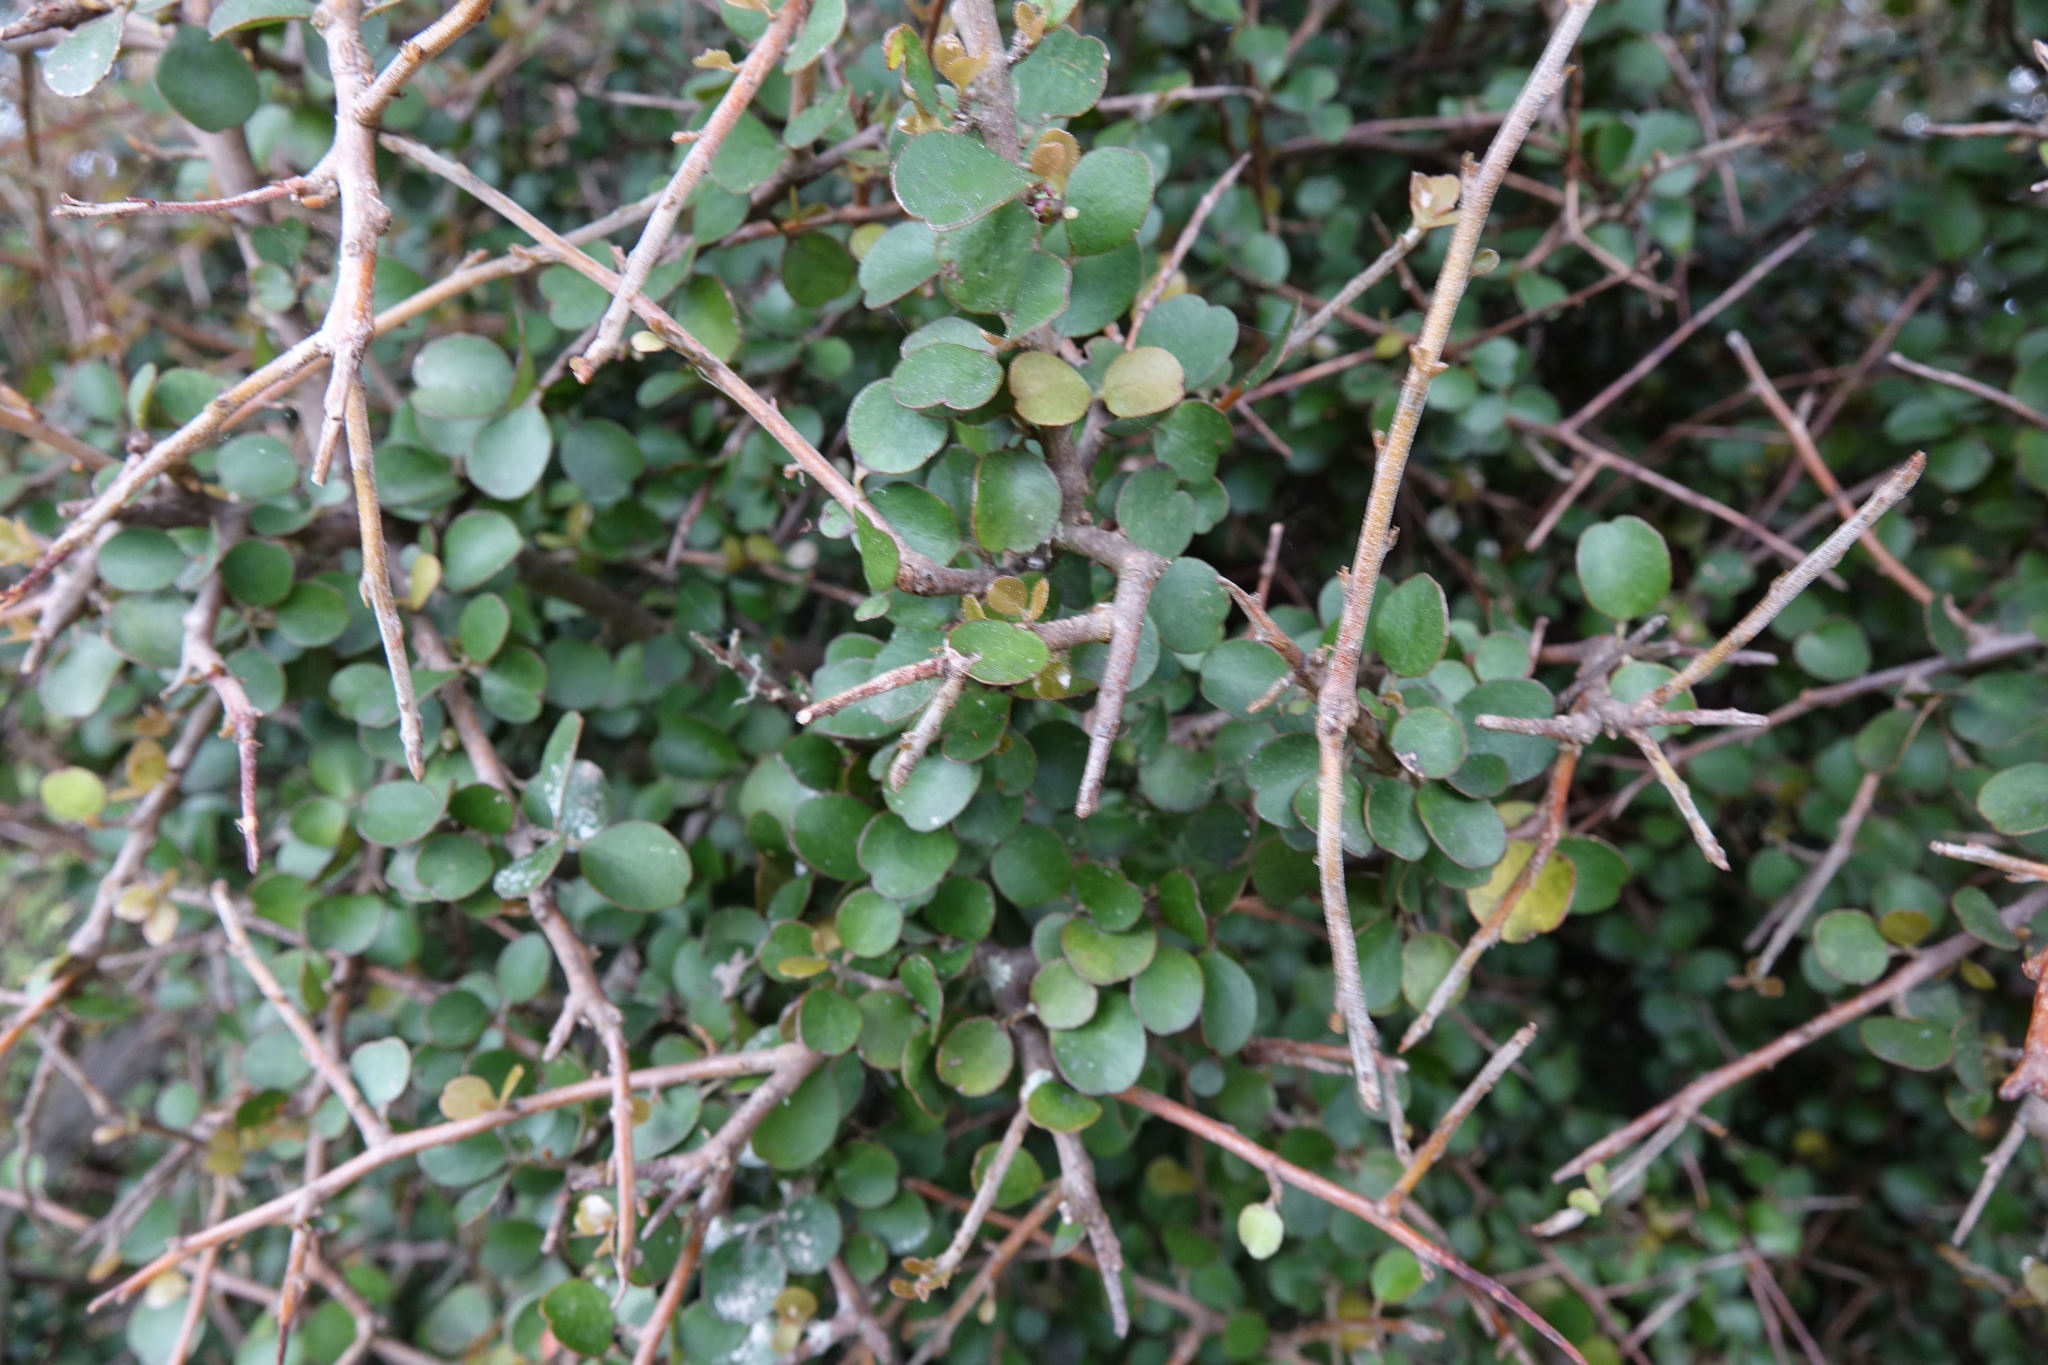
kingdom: Plantae
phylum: Tracheophyta
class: Magnoliopsida
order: Ericales
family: Primulaceae
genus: Myrsine
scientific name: Myrsine divaricata
